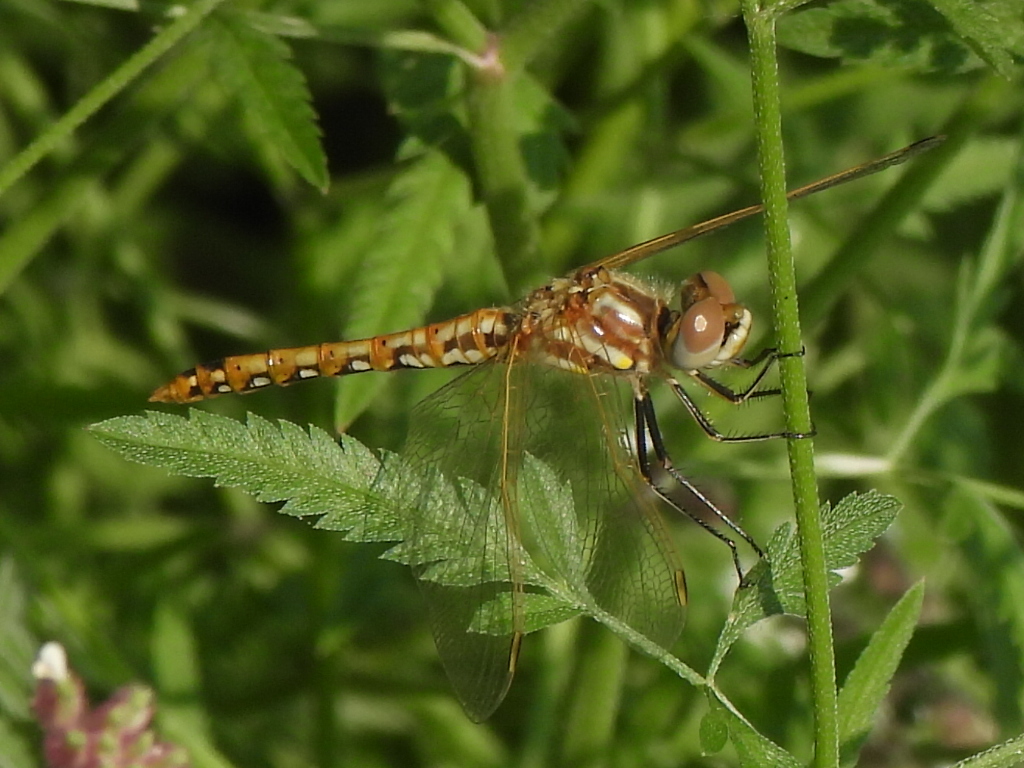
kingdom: Animalia
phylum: Arthropoda
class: Insecta
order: Odonata
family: Libellulidae
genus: Sympetrum
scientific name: Sympetrum corruptum
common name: Variegated meadowhawk
